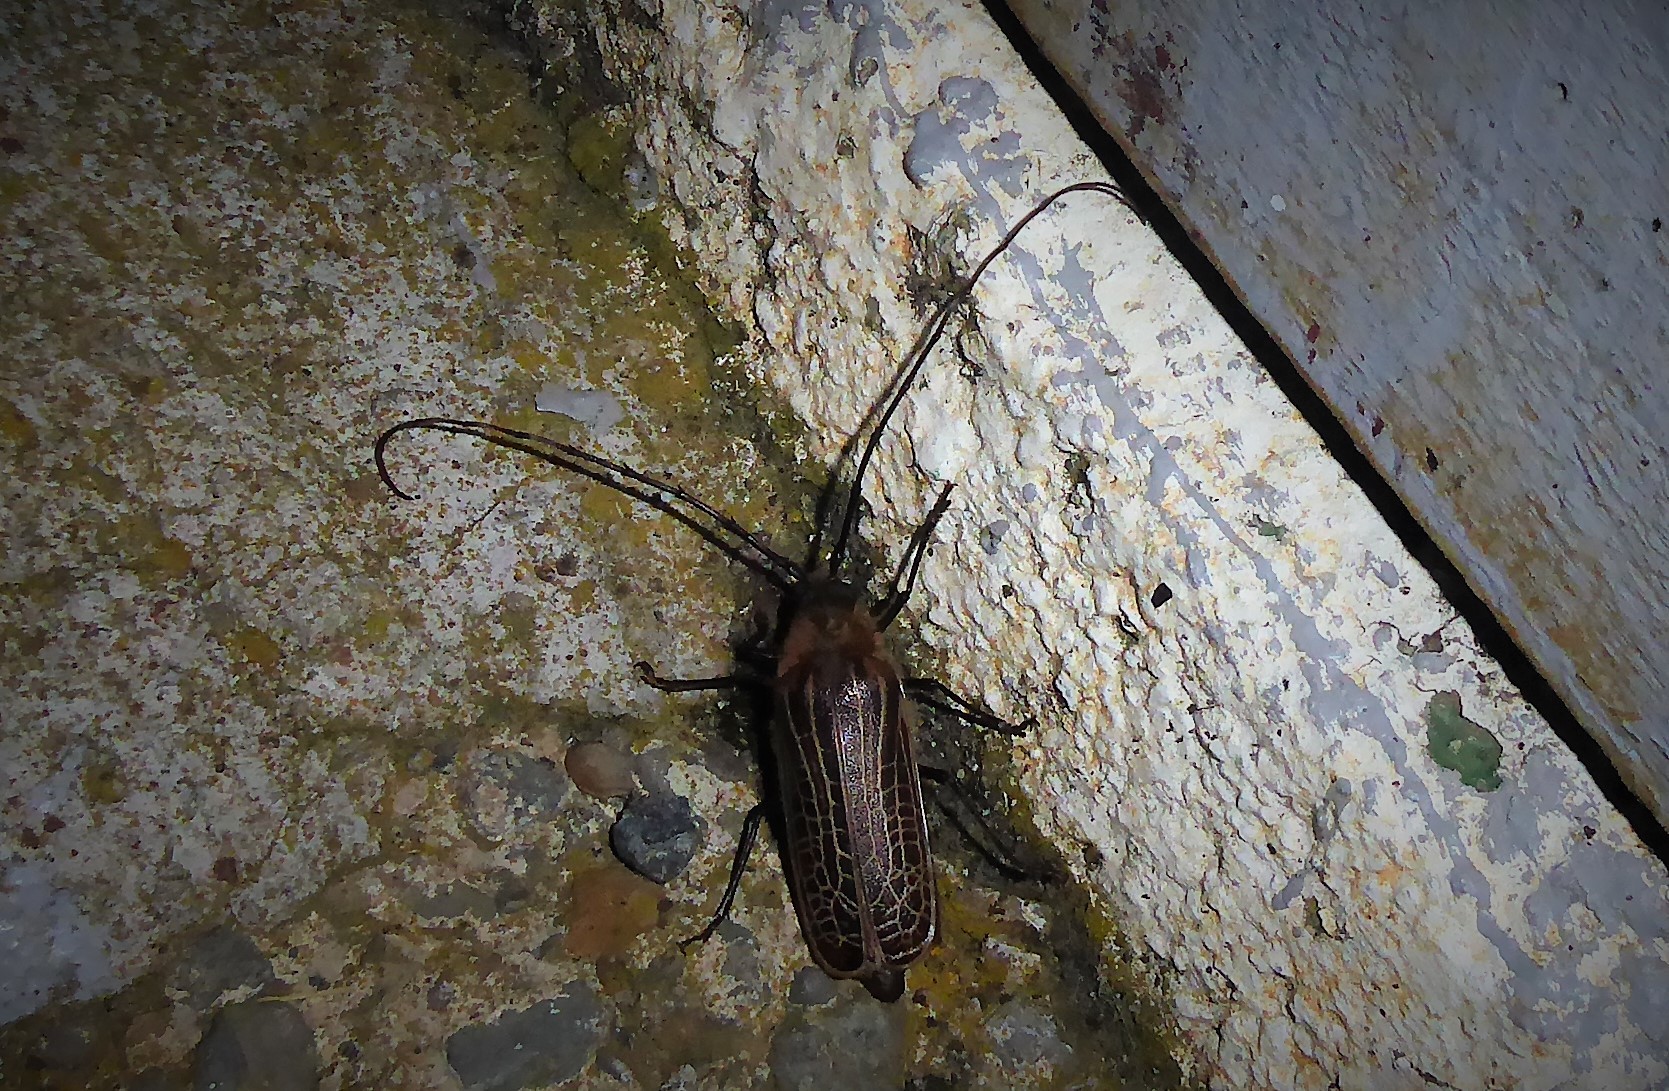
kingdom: Animalia
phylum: Arthropoda
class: Insecta
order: Coleoptera
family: Cerambycidae
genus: Prionoplus
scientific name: Prionoplus reticularis
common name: Huhu beetle
